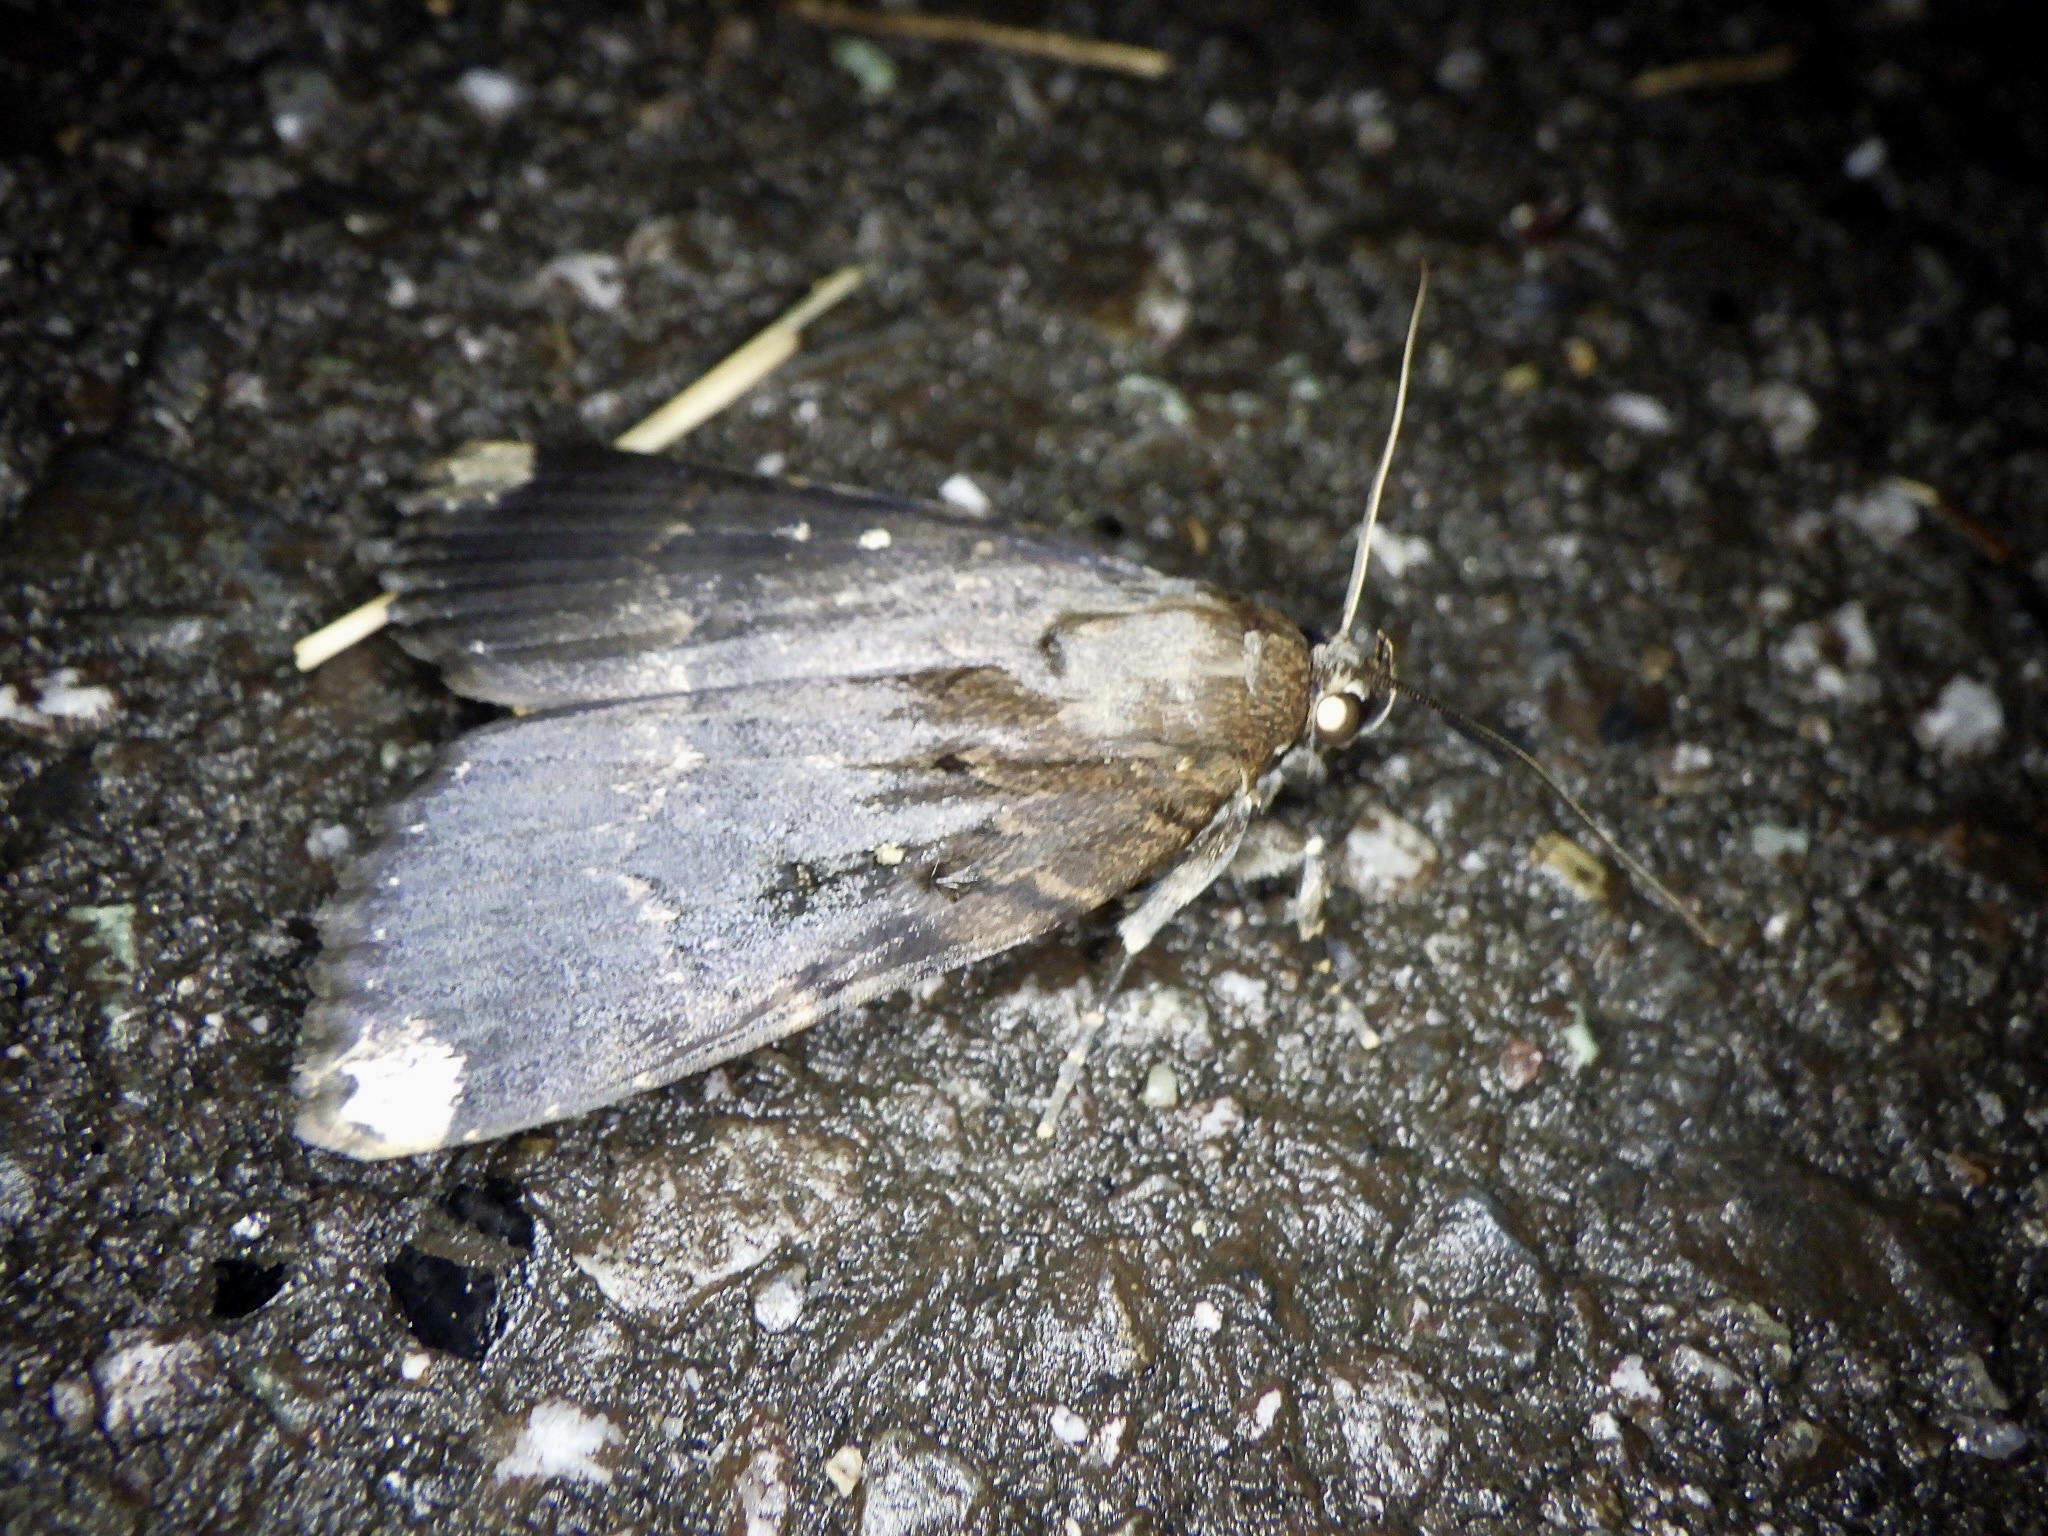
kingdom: Animalia
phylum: Arthropoda
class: Insecta
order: Lepidoptera
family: Noctuidae
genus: Amphipyra
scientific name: Amphipyra schrenckii
